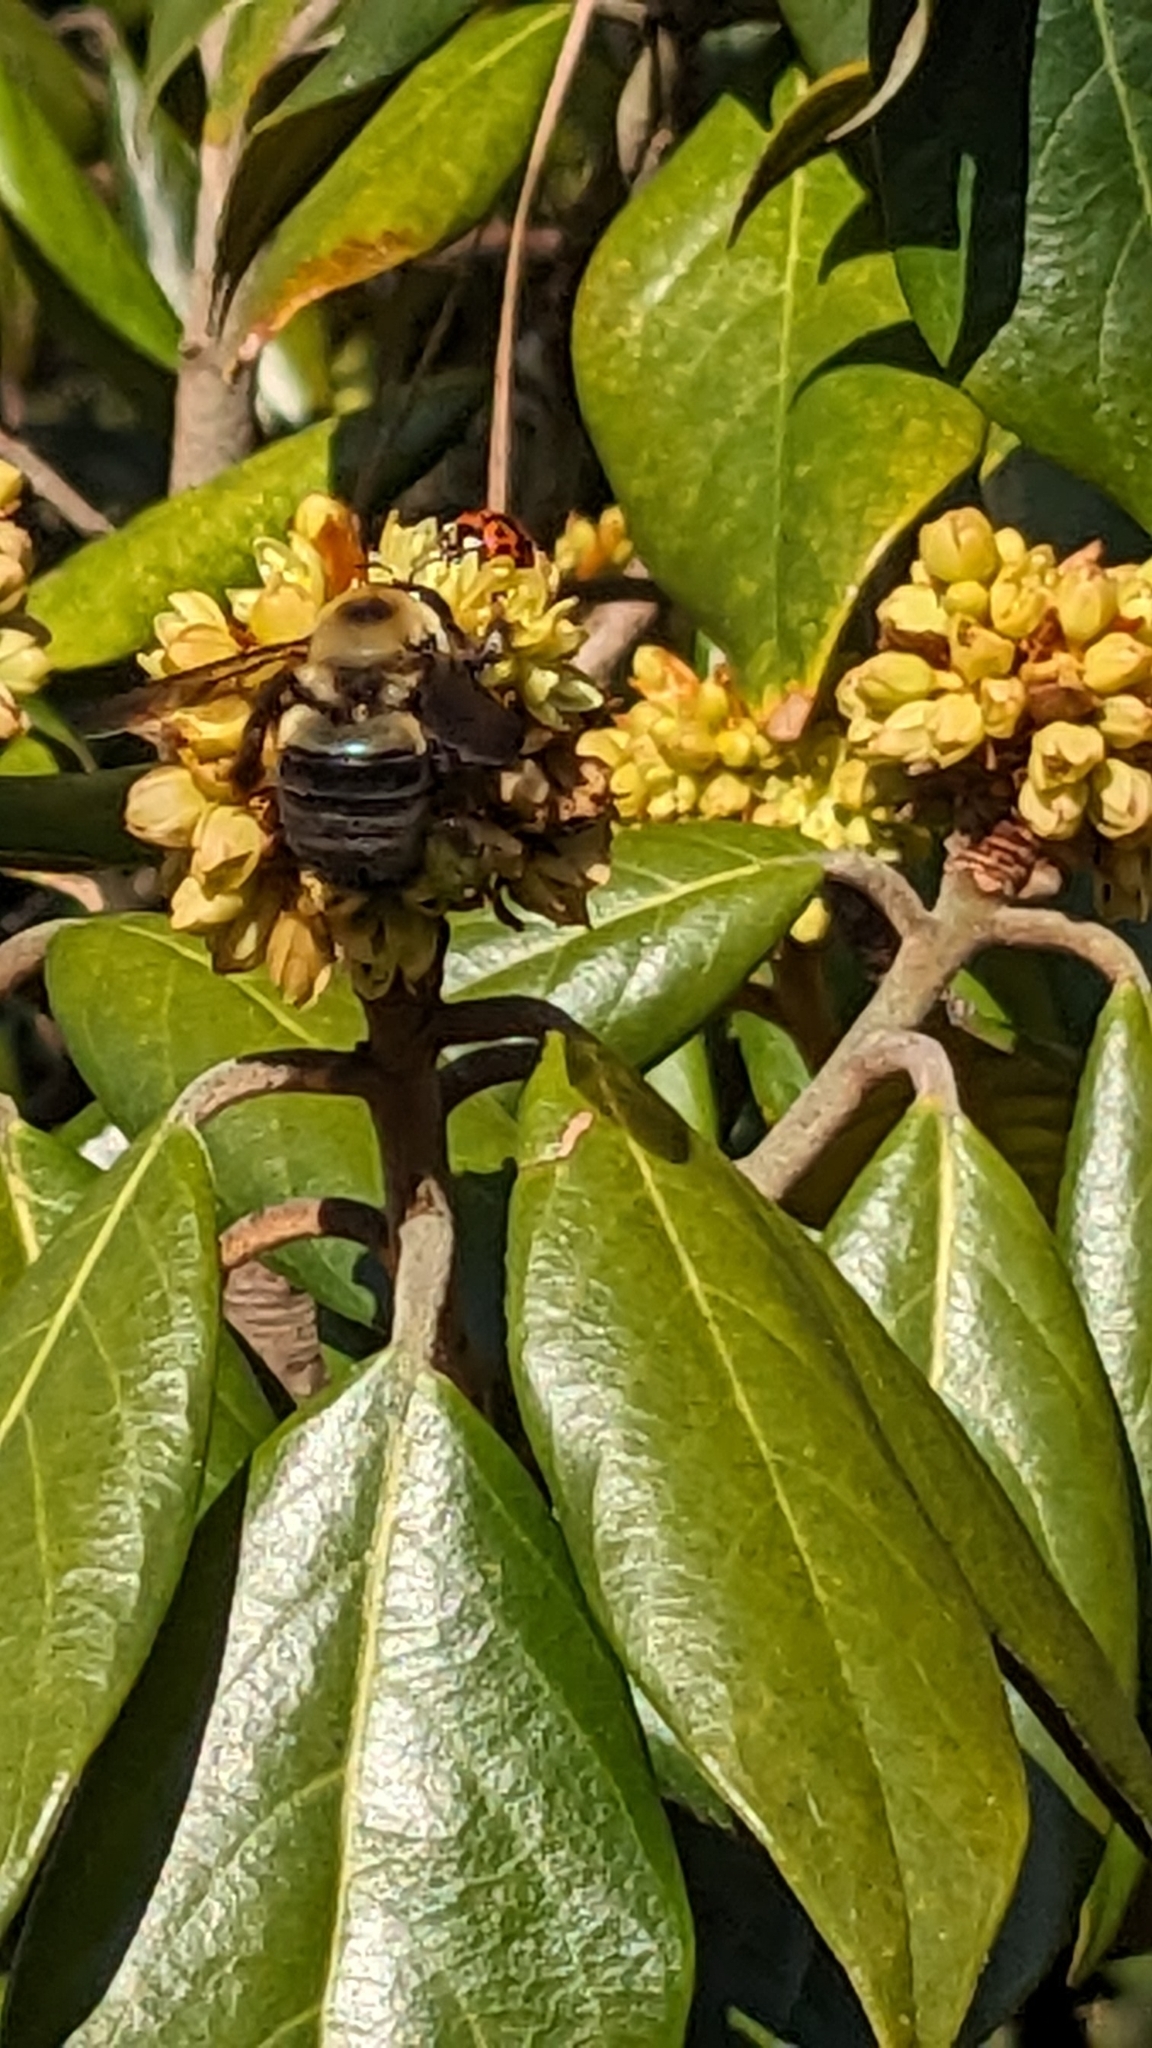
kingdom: Animalia
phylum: Arthropoda
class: Insecta
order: Hymenoptera
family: Apidae
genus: Xylocopa
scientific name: Xylocopa virginica
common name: Carpenter bee
